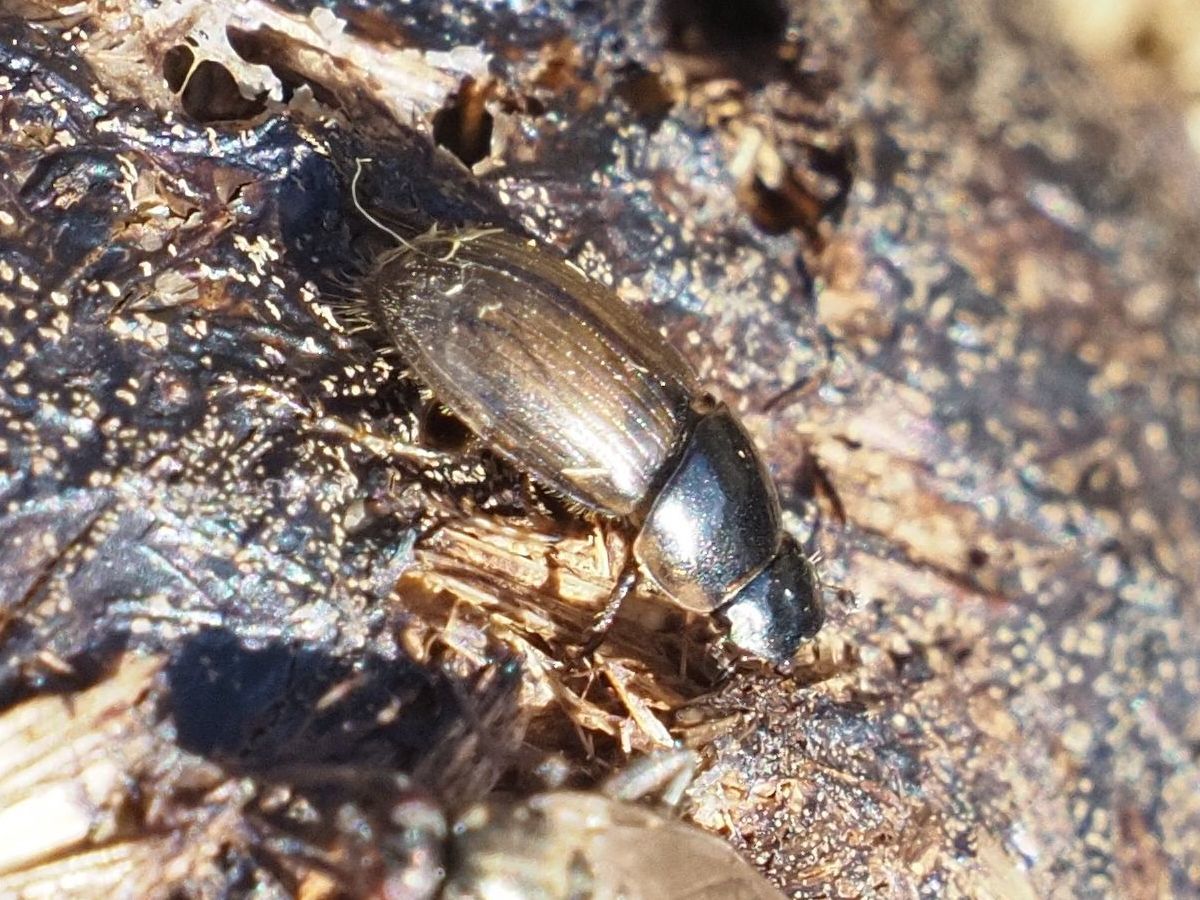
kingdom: Animalia
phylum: Arthropoda
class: Insecta
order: Coleoptera
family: Scarabaeidae
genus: Melinopterus
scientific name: Melinopterus prodromus
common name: Spring small dung beetle
